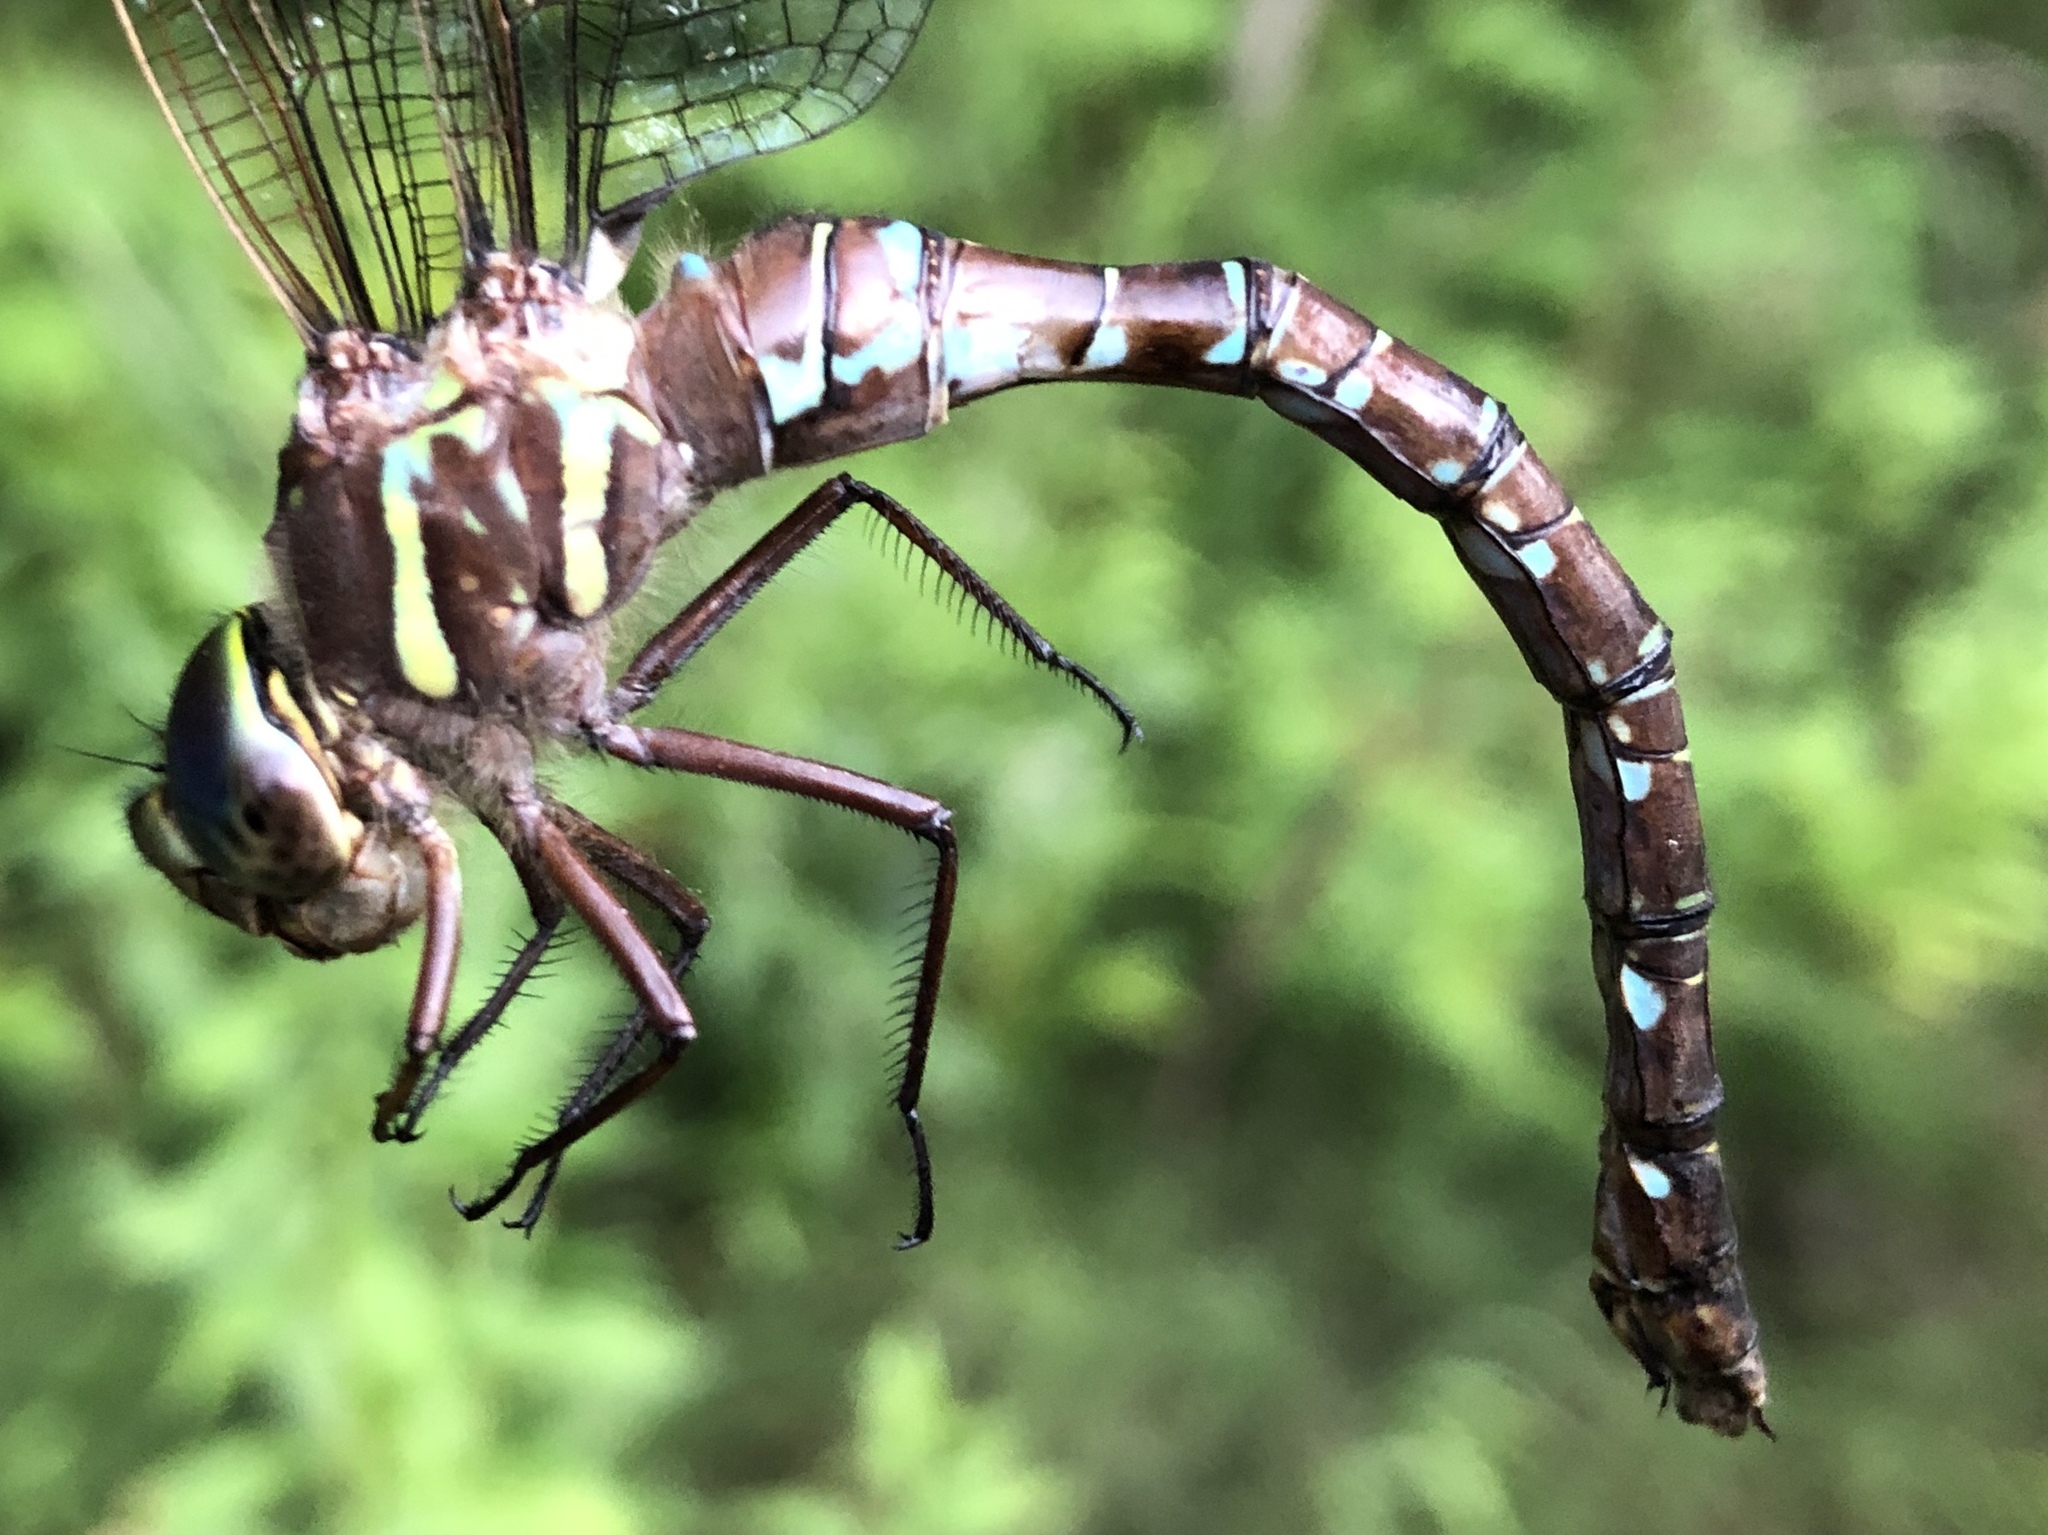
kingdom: Animalia
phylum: Arthropoda
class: Insecta
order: Odonata
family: Aeshnidae
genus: Aeshna
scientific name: Aeshna umbrosa
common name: Shadow darner
